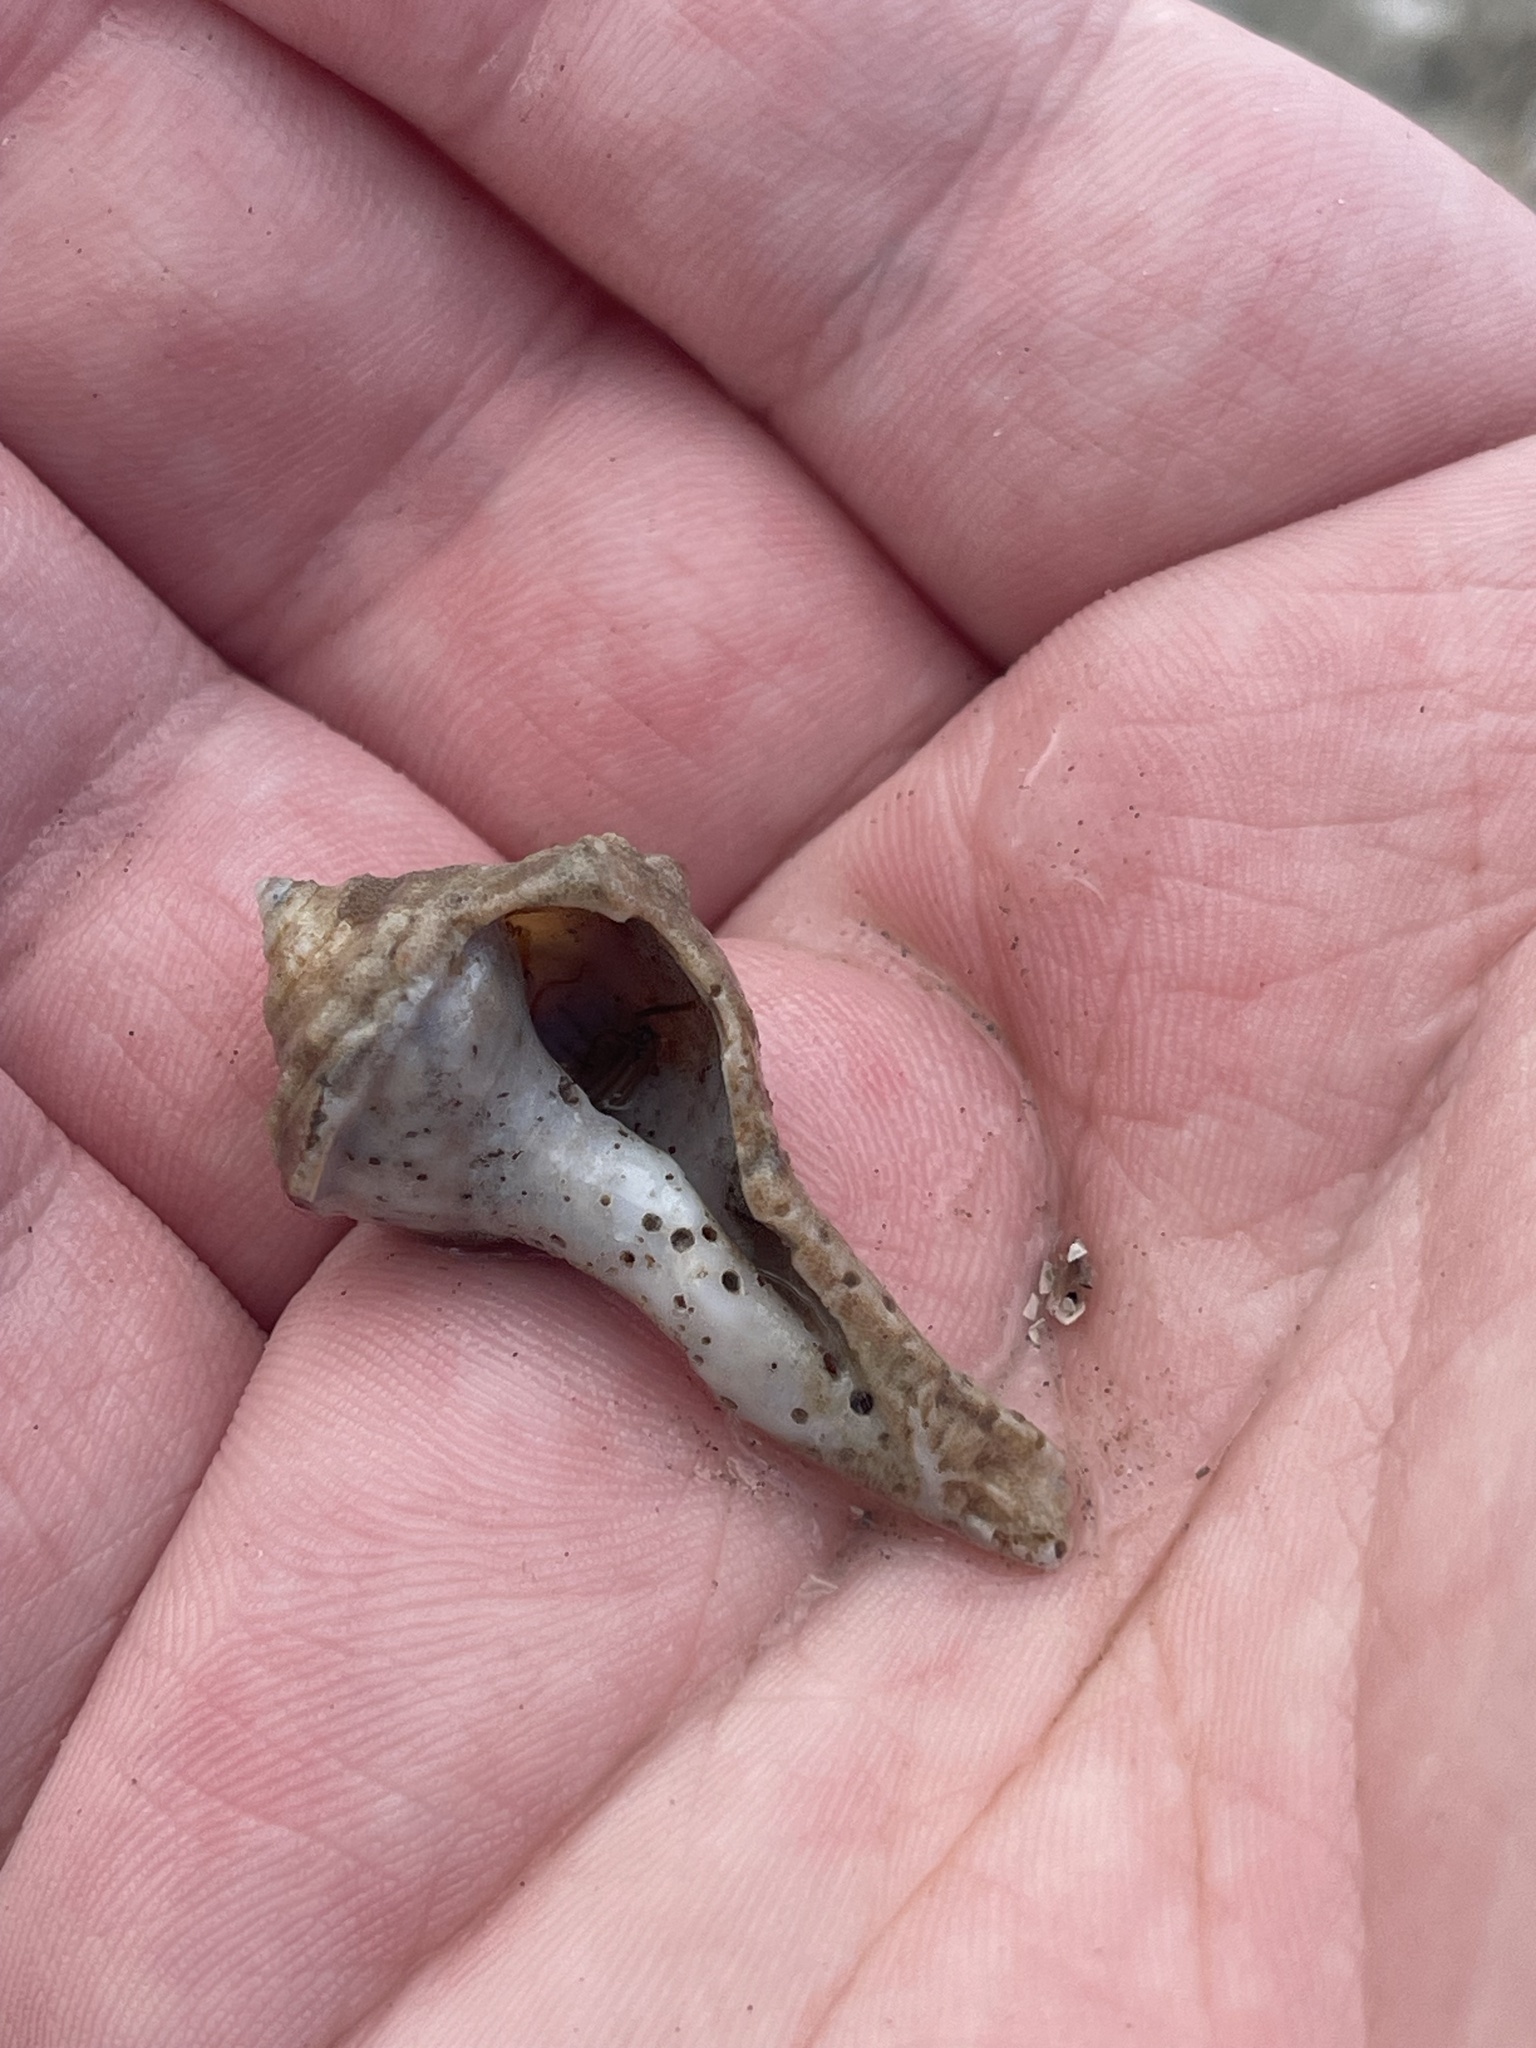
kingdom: Animalia
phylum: Mollusca
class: Gastropoda
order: Neogastropoda
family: Busyconidae
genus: Busycon
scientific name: Busycon carica
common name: Knobbed whelk
